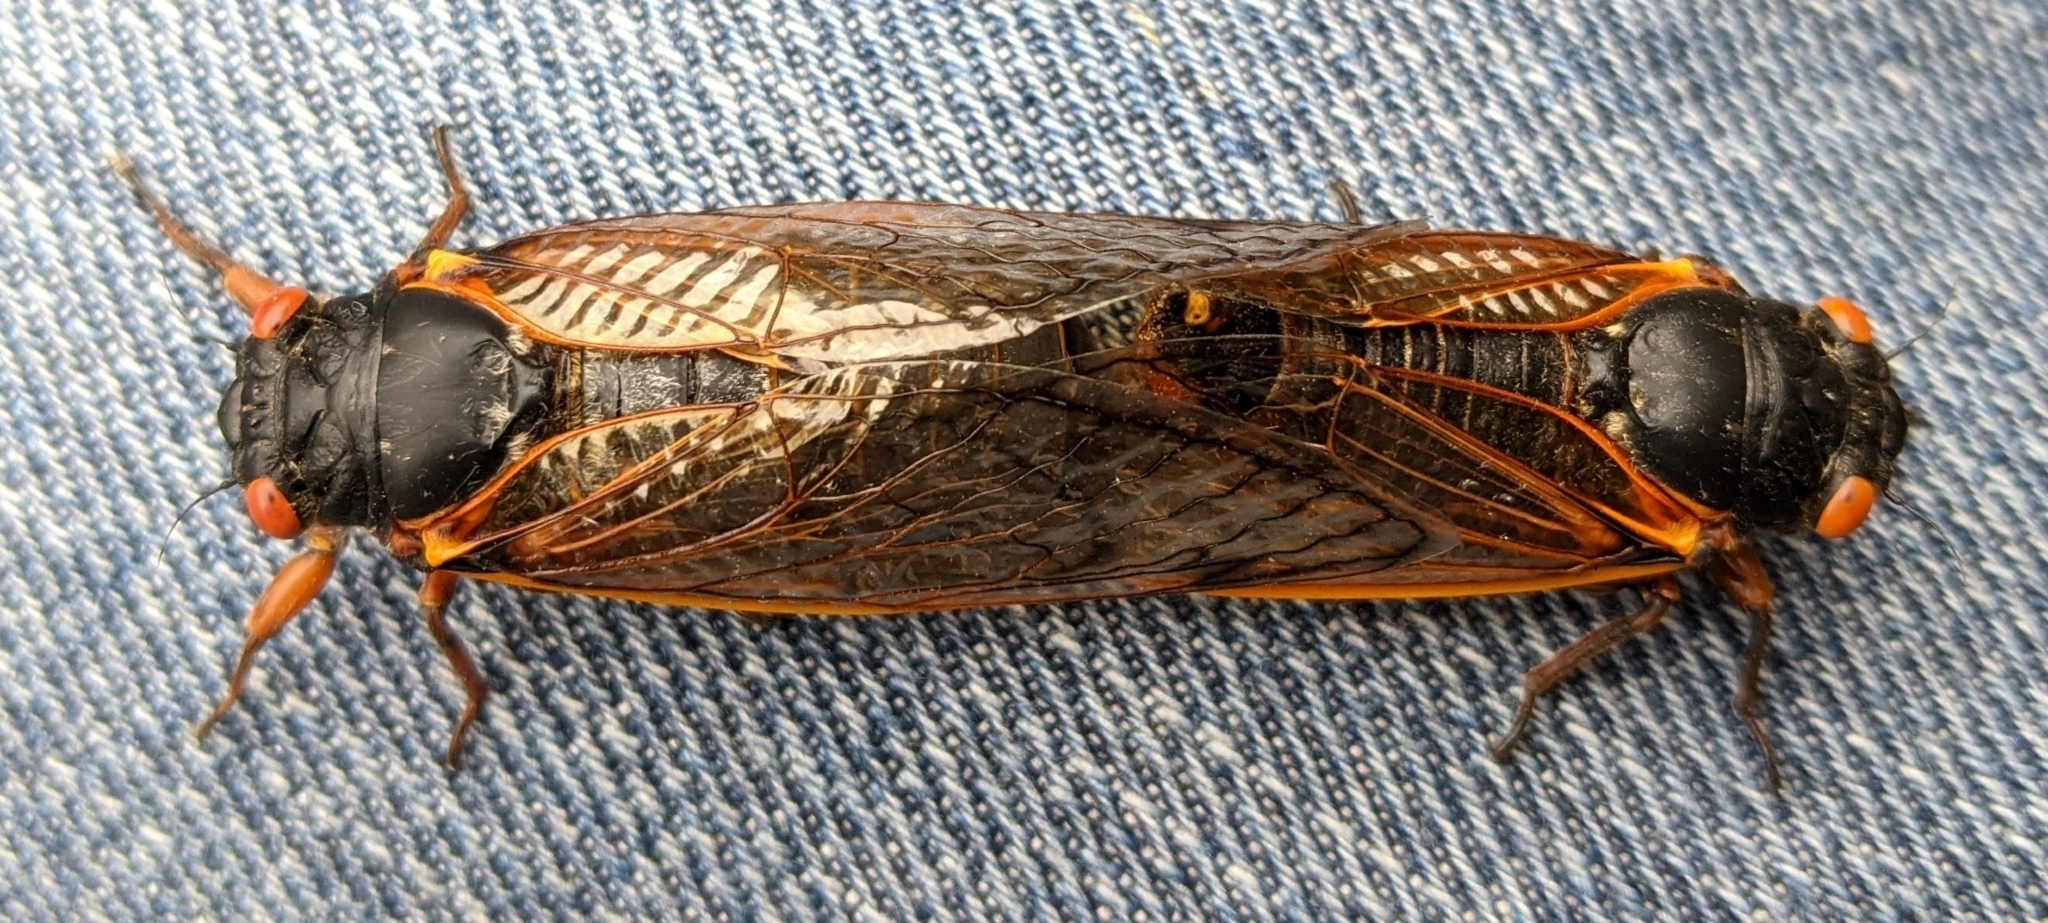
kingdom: Animalia
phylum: Arthropoda
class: Insecta
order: Hemiptera
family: Cicadidae
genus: Magicicada
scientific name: Magicicada septendecim
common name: Periodical cicada
